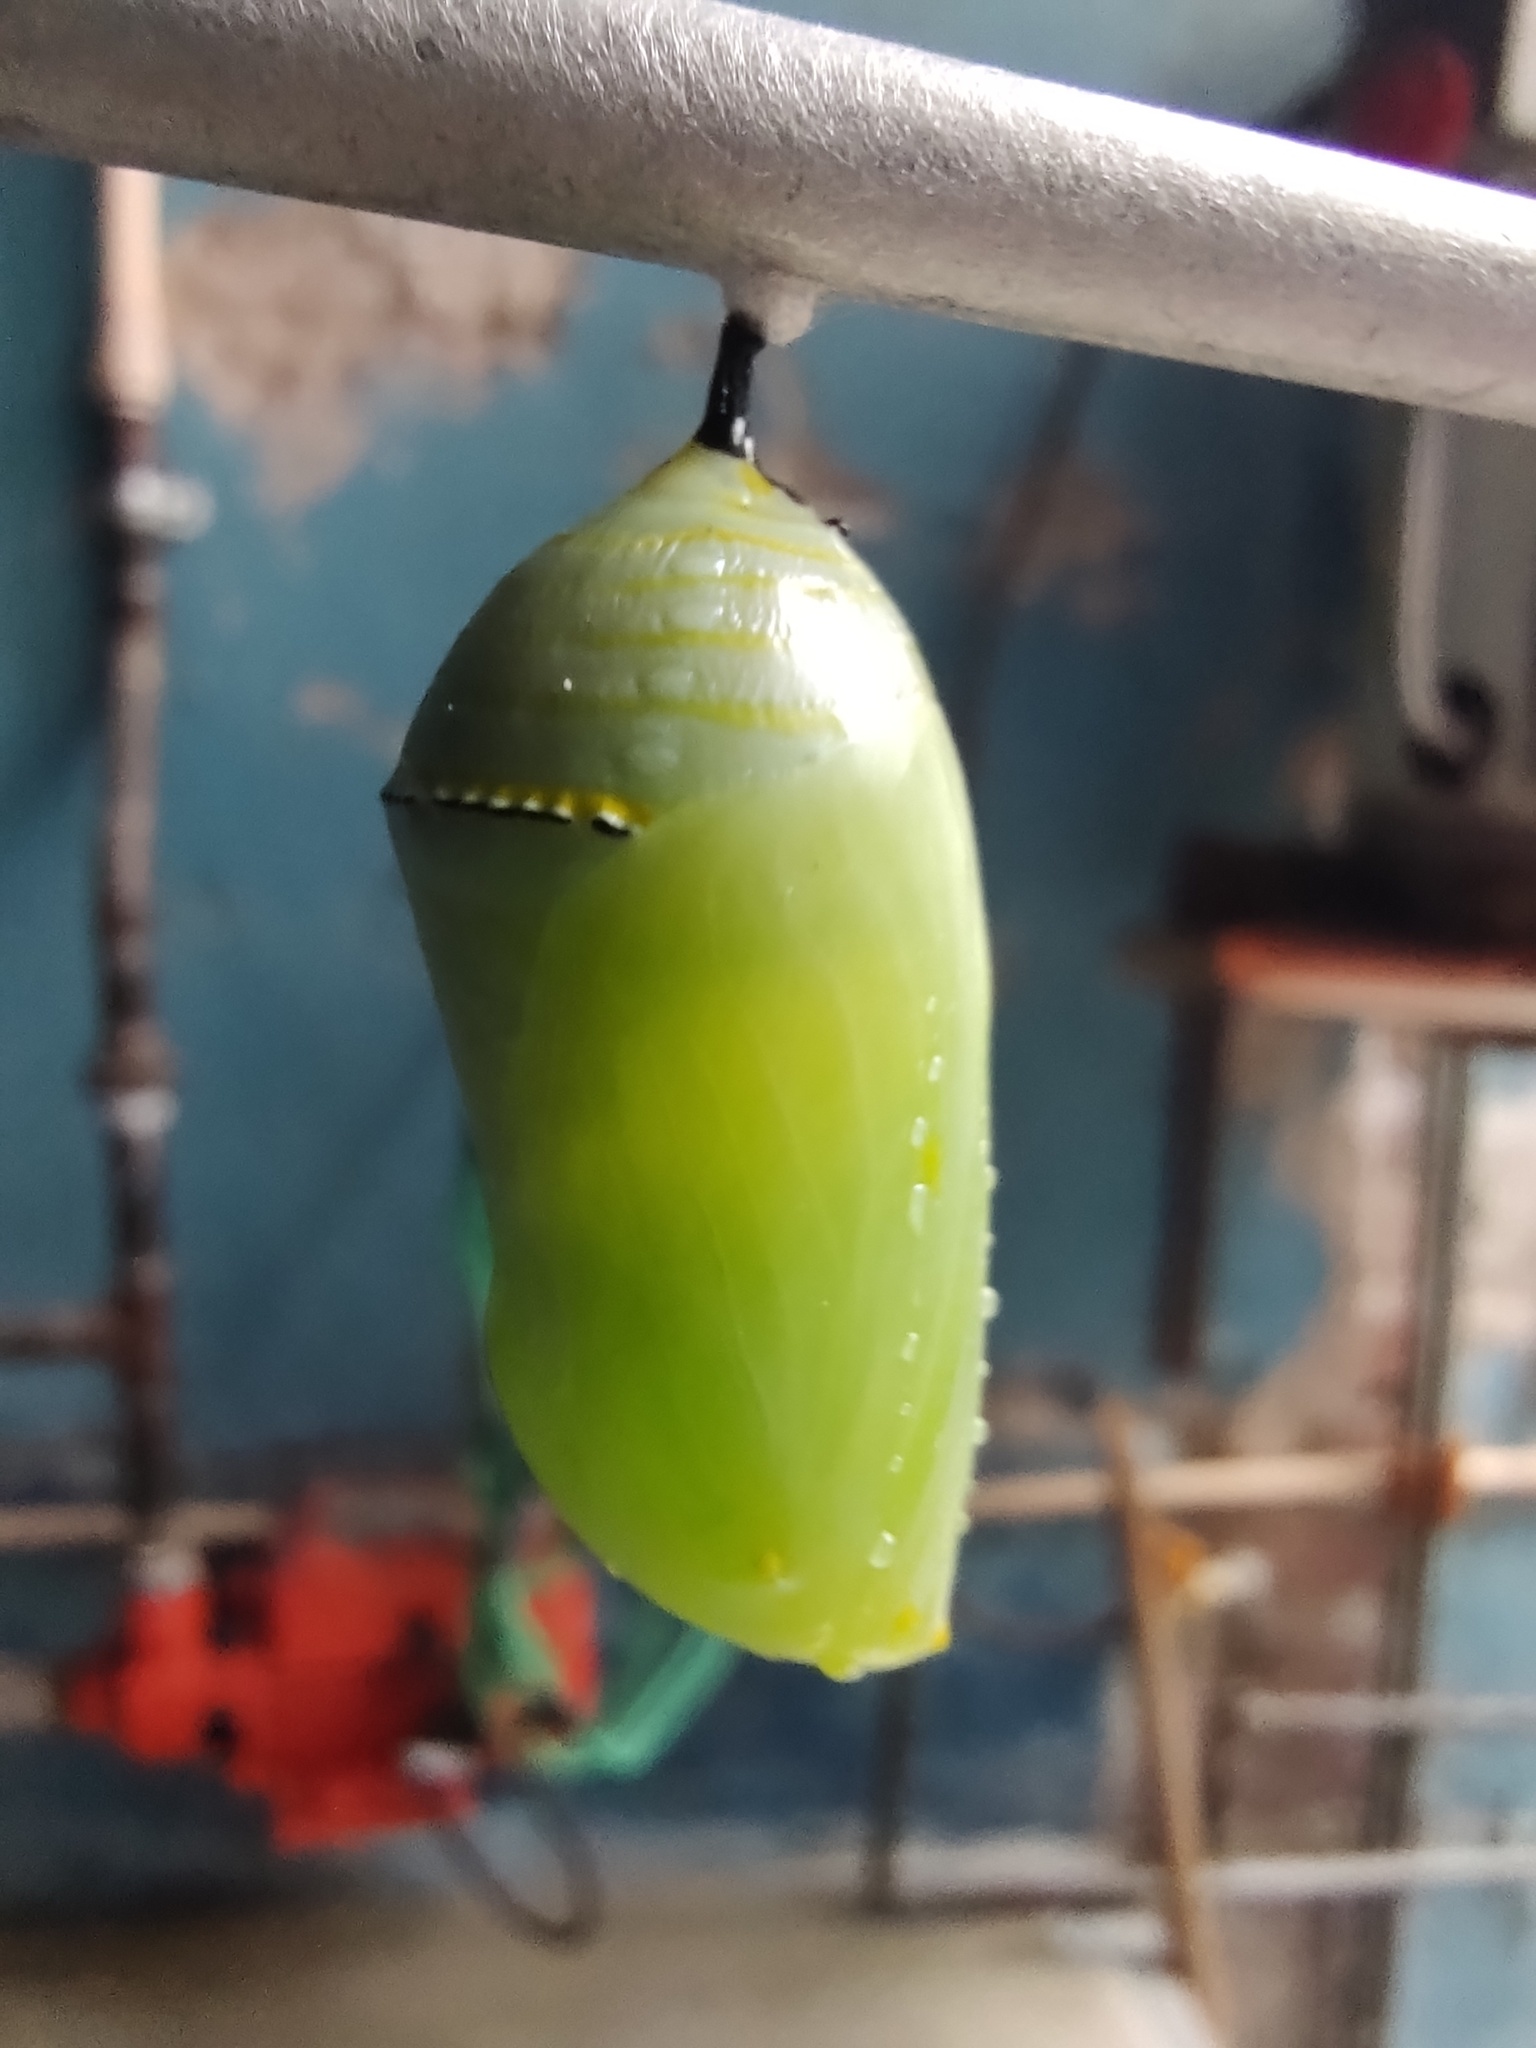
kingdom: Animalia
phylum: Arthropoda
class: Insecta
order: Lepidoptera
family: Nymphalidae
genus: Danaus
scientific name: Danaus plexippus
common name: Monarch
